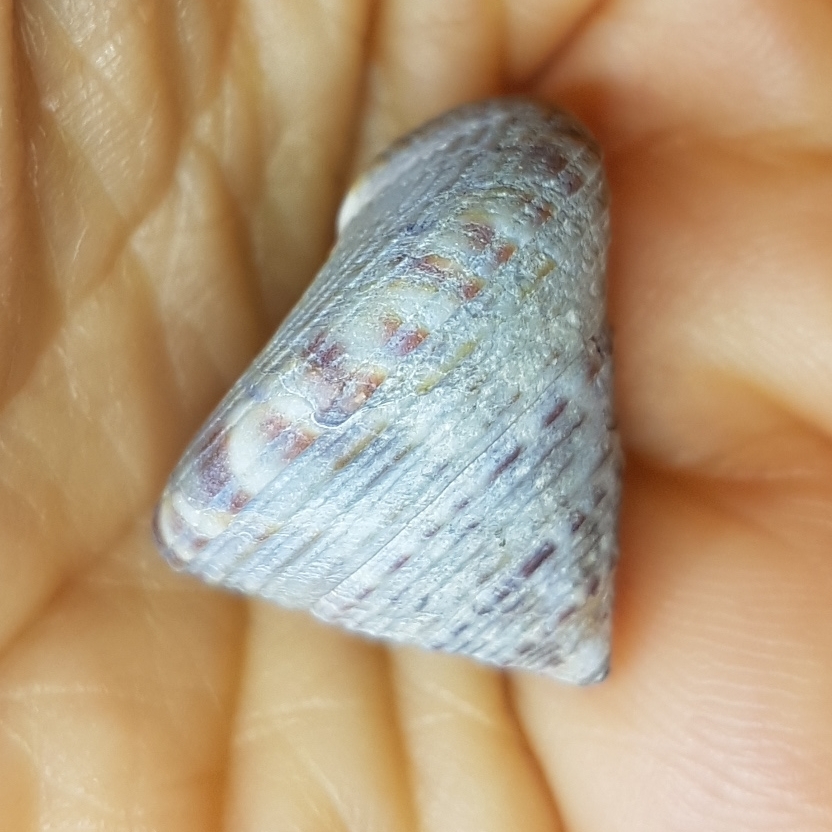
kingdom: Animalia
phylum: Mollusca
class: Gastropoda
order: Trochida
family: Calliostomatidae
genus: Calliostoma
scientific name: Calliostoma zizyphinum
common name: Painted top shell
